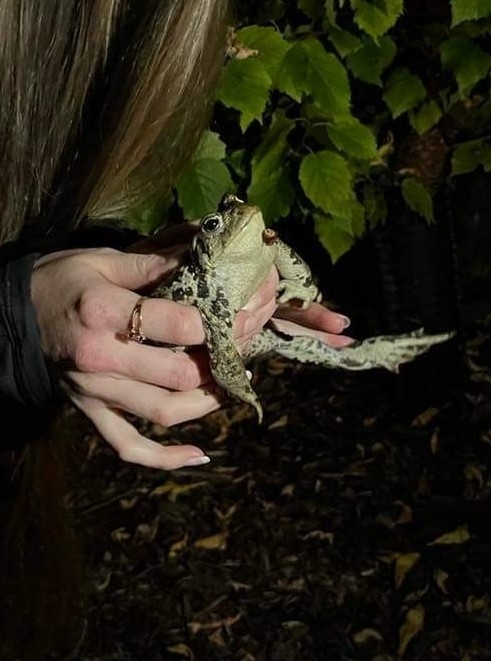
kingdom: Animalia
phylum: Chordata
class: Amphibia
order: Anura
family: Bufonidae
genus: Anaxyrus
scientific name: Anaxyrus boreas
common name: Western toad
